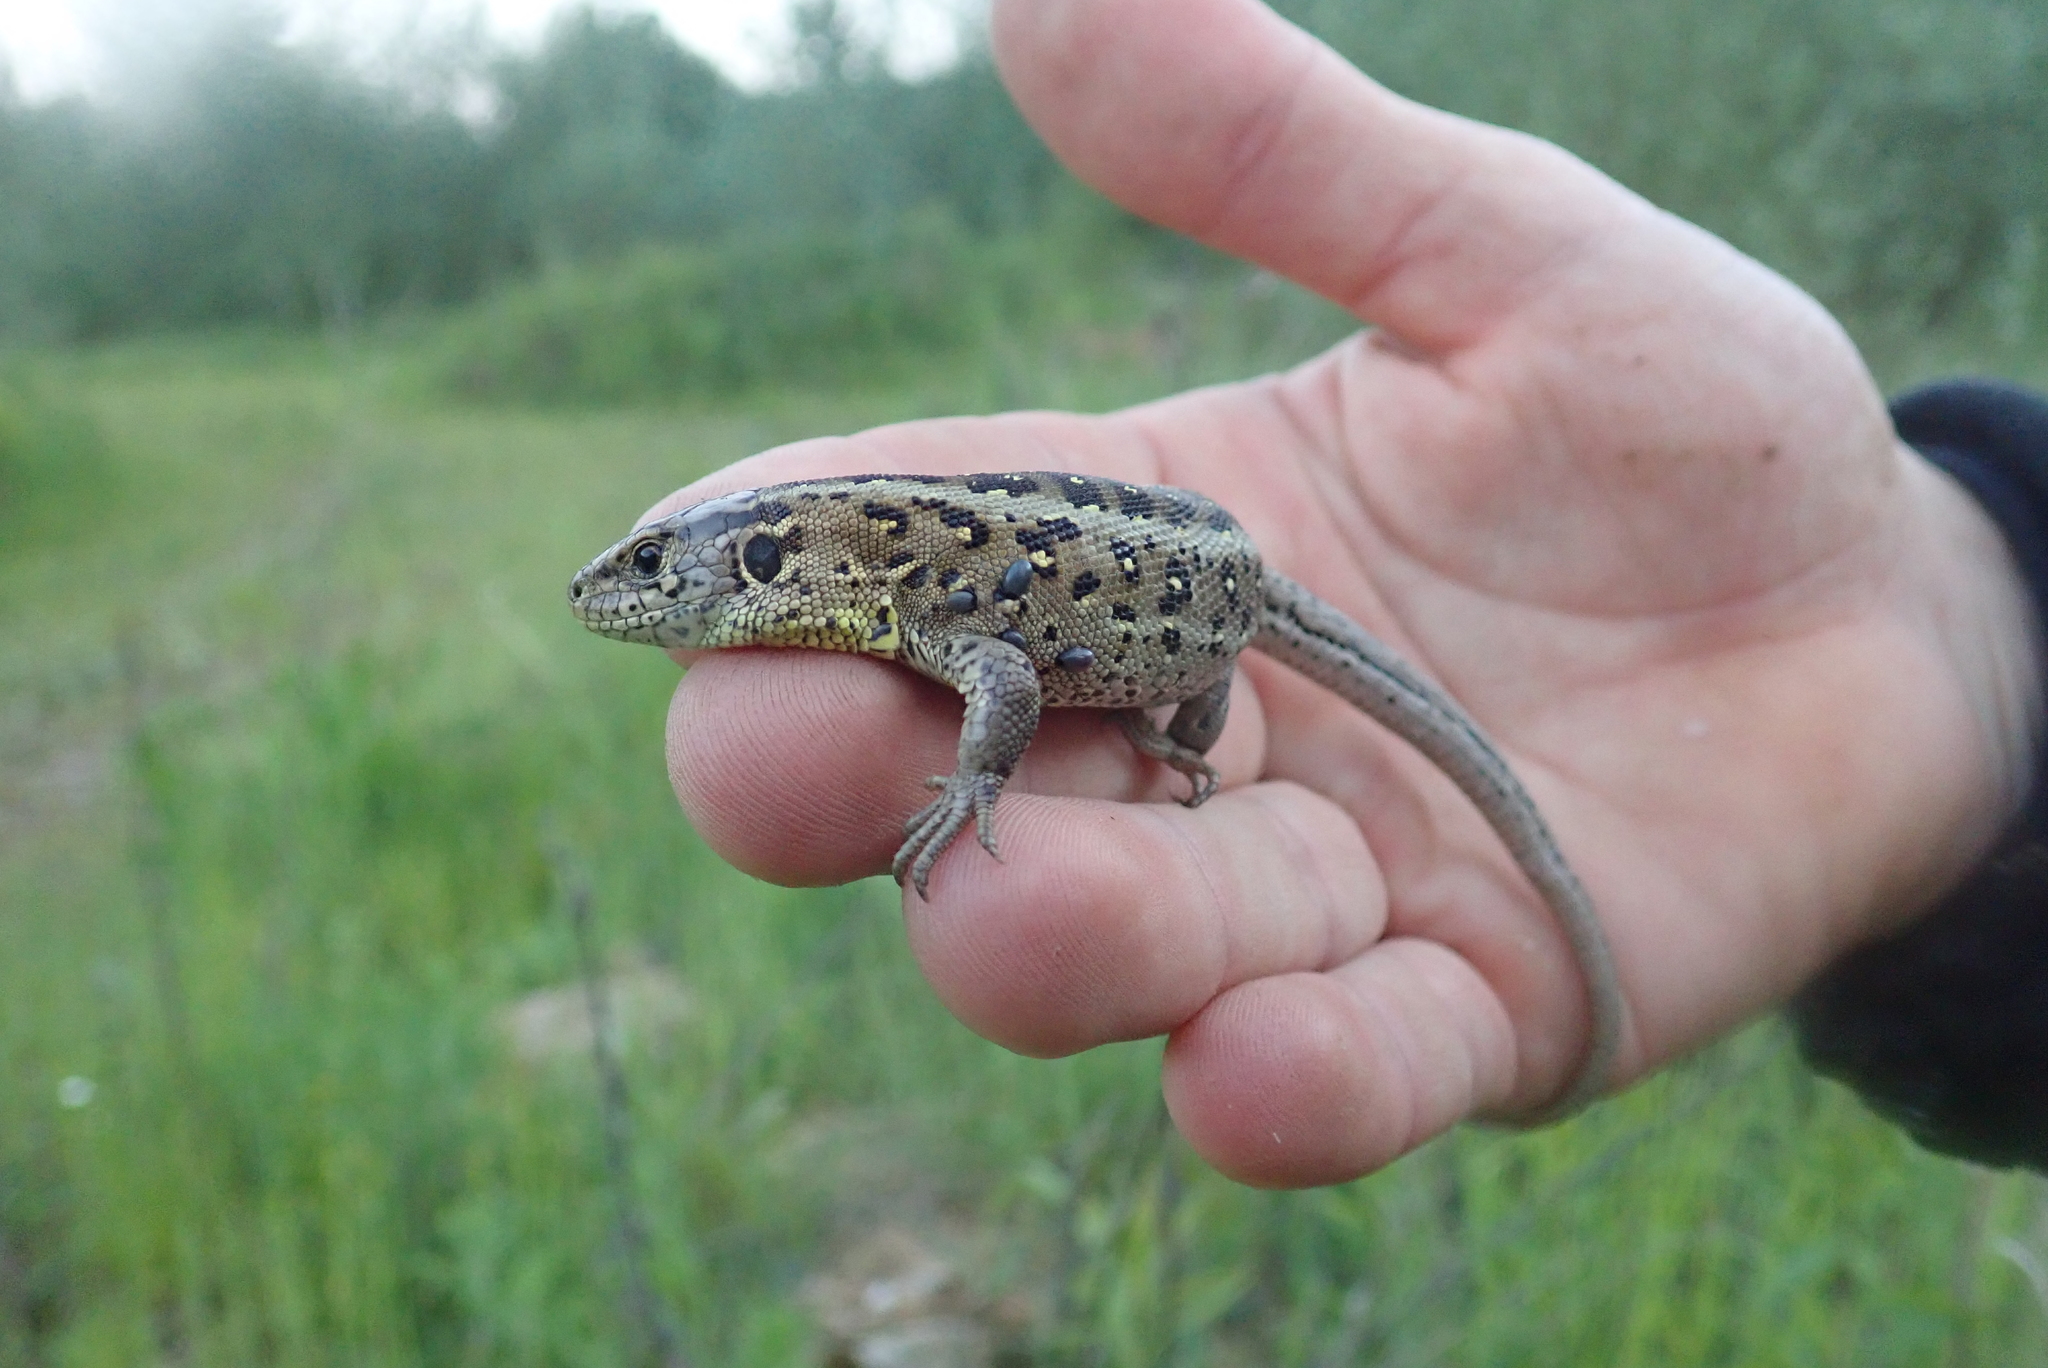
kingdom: Animalia
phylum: Chordata
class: Squamata
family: Lacertidae
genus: Lacerta
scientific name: Lacerta agilis
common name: Sand lizard
